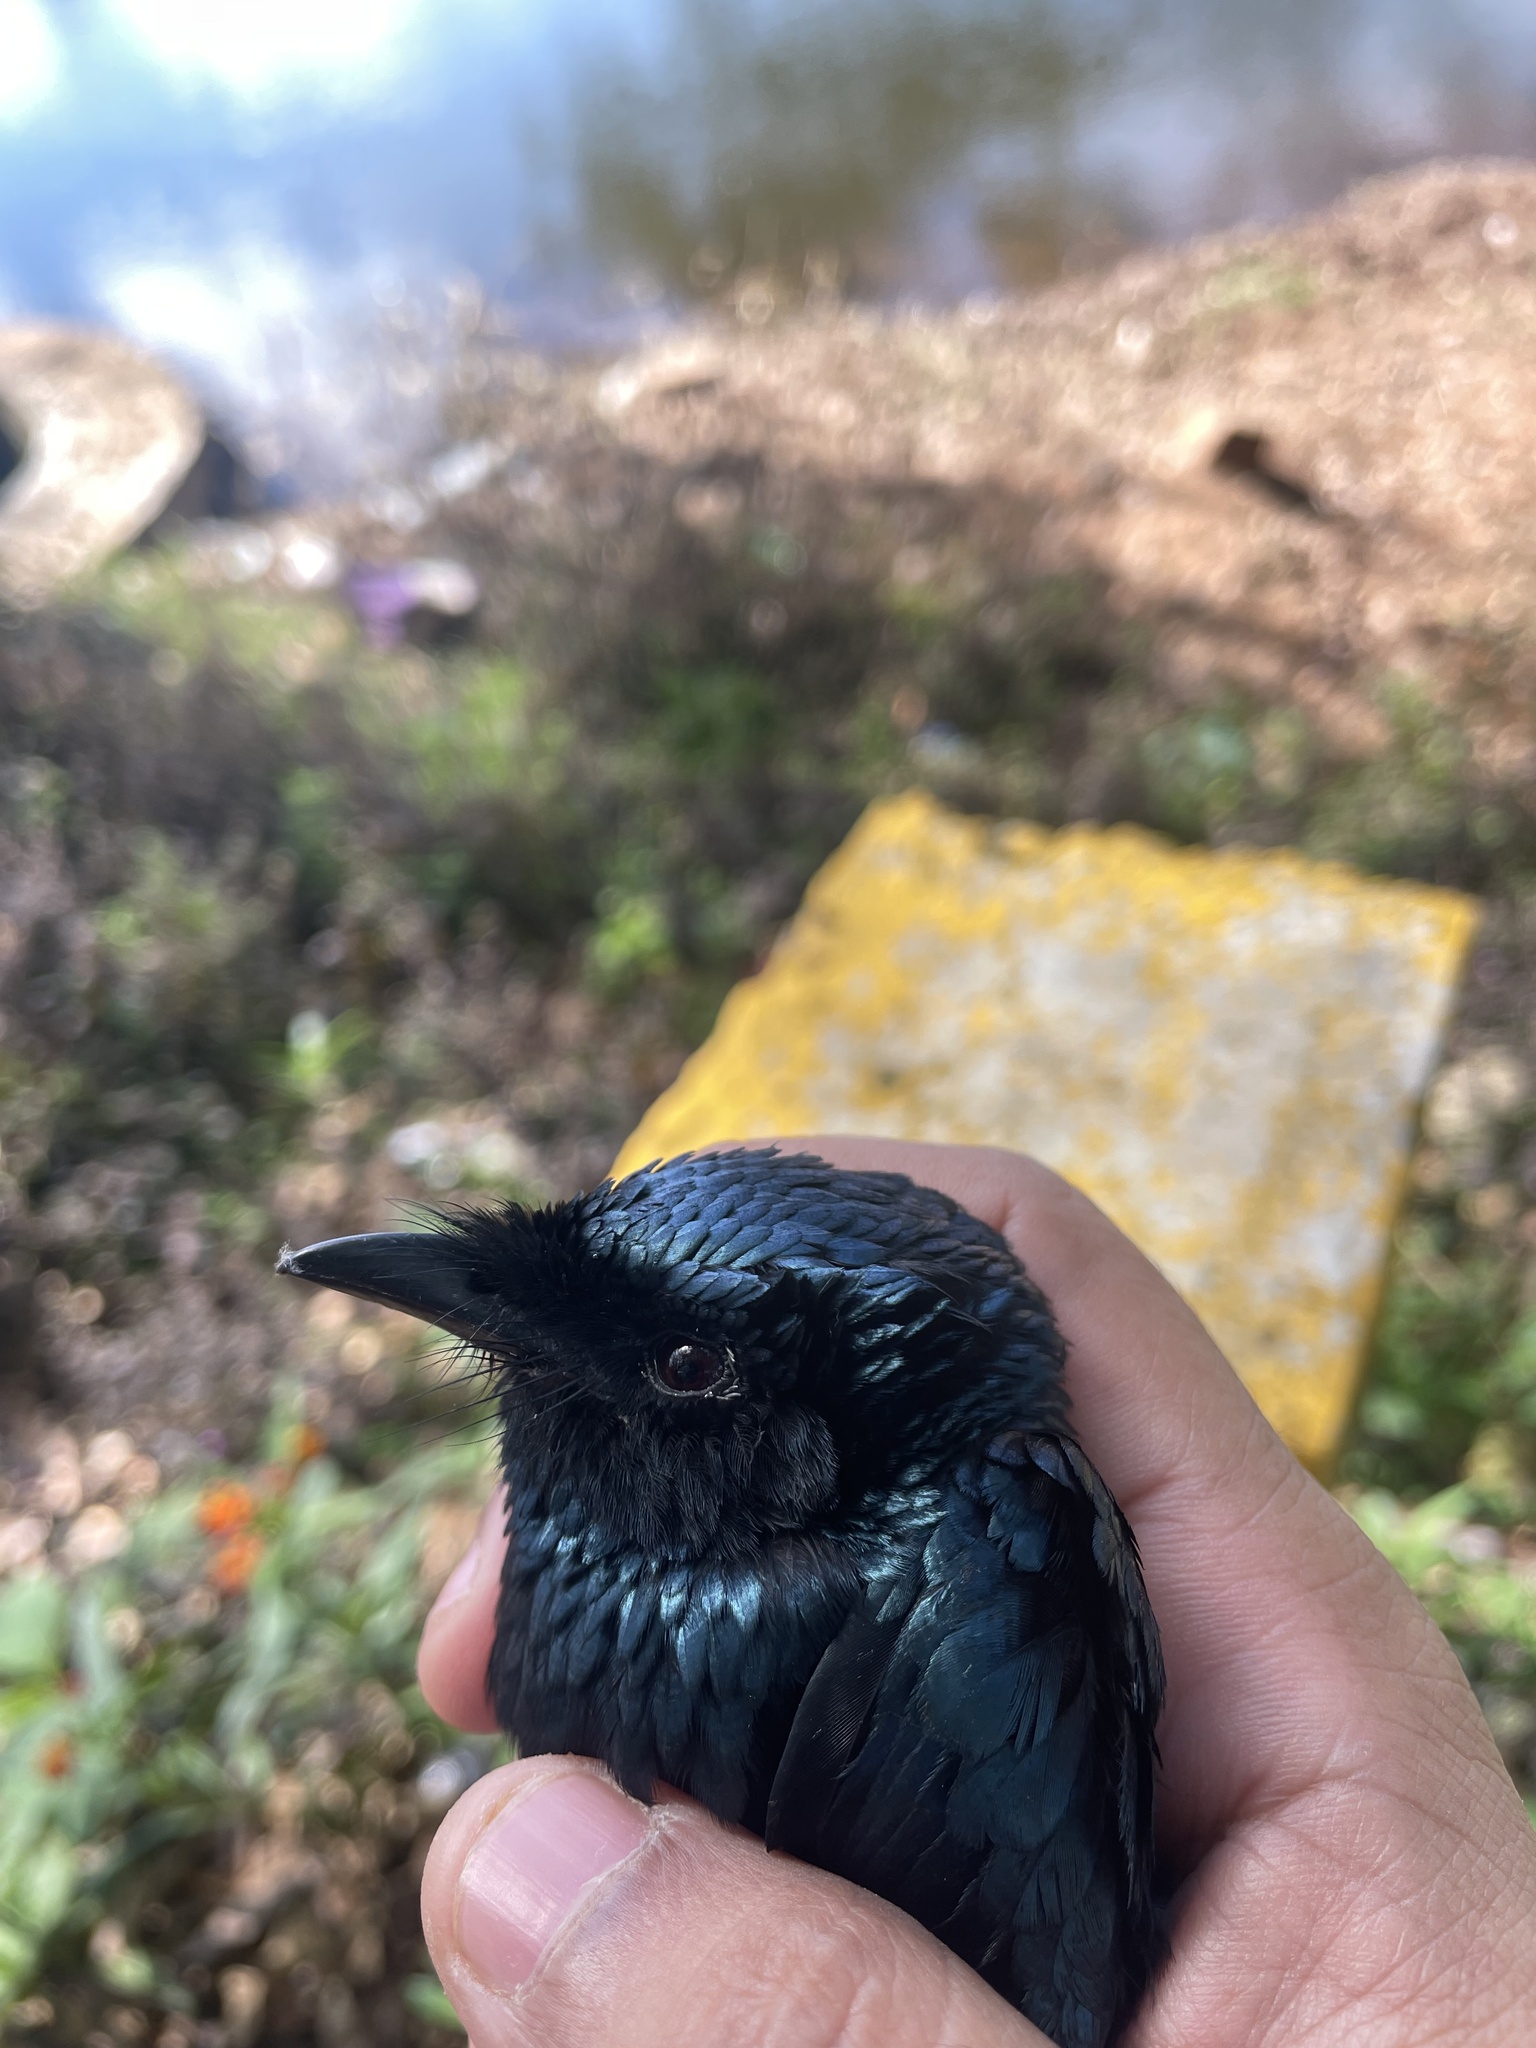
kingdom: Animalia
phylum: Chordata
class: Aves
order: Passeriformes
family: Dicruridae
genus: Dicrurus
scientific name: Dicrurus aeneus
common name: Bronzed drongo
